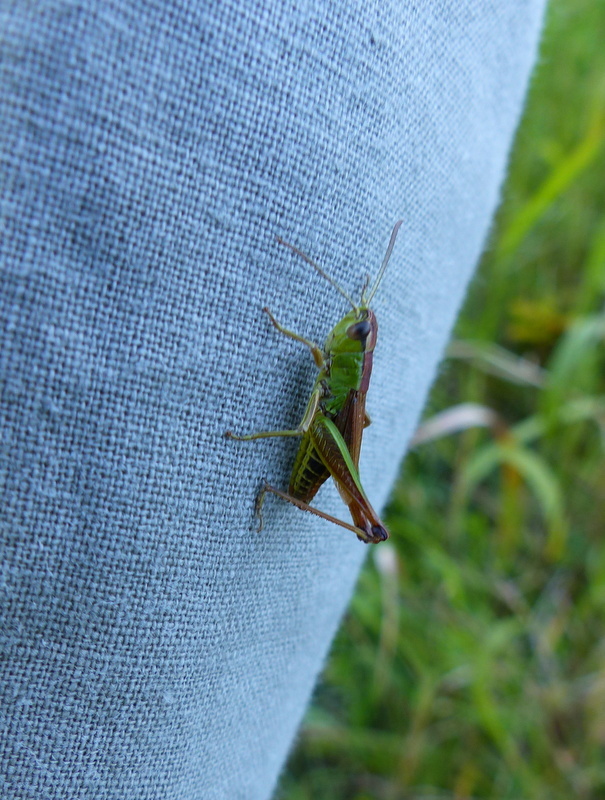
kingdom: Animalia
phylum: Arthropoda
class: Insecta
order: Orthoptera
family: Acrididae
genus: Pseudochorthippus
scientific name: Pseudochorthippus parallelus
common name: Meadow grasshopper
